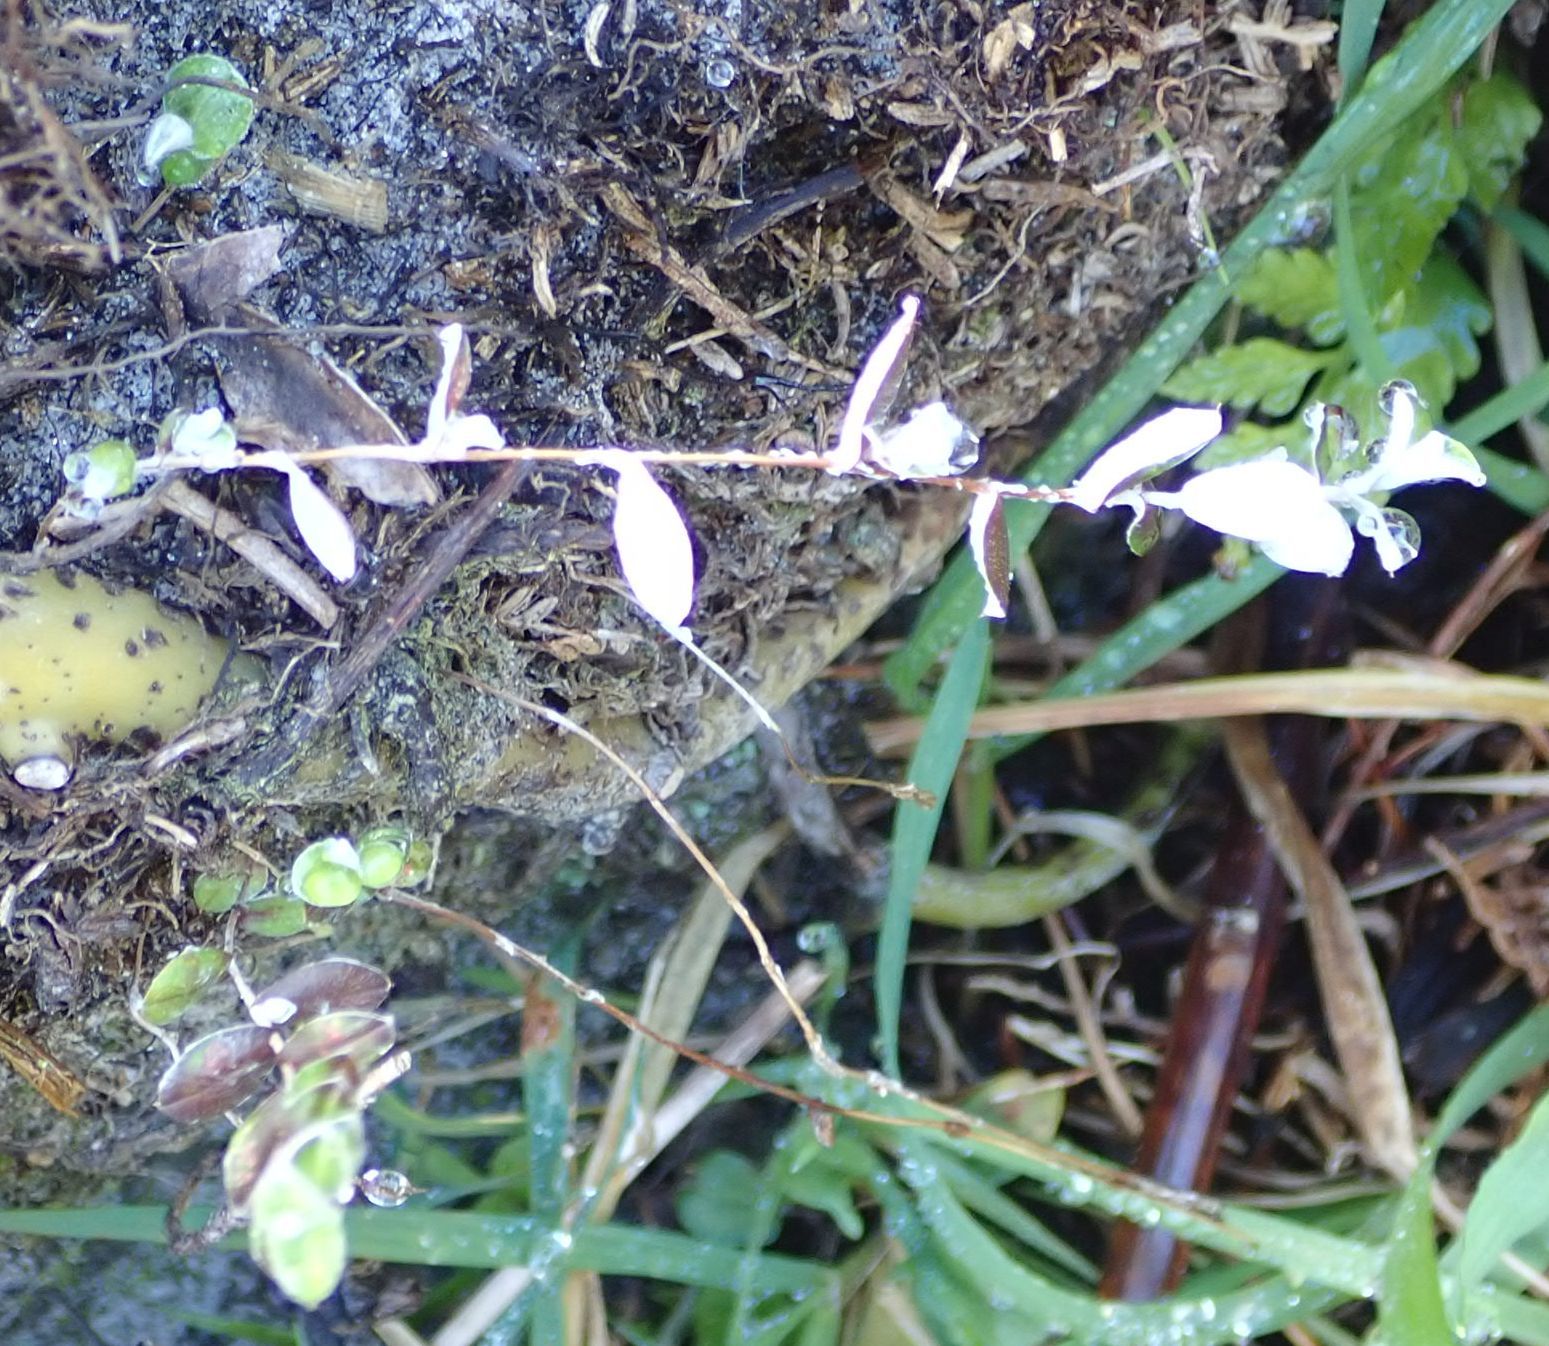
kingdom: Plantae
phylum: Tracheophyta
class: Magnoliopsida
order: Asterales
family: Asteraceae
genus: Helichrysum
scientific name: Helichrysum filicaule
